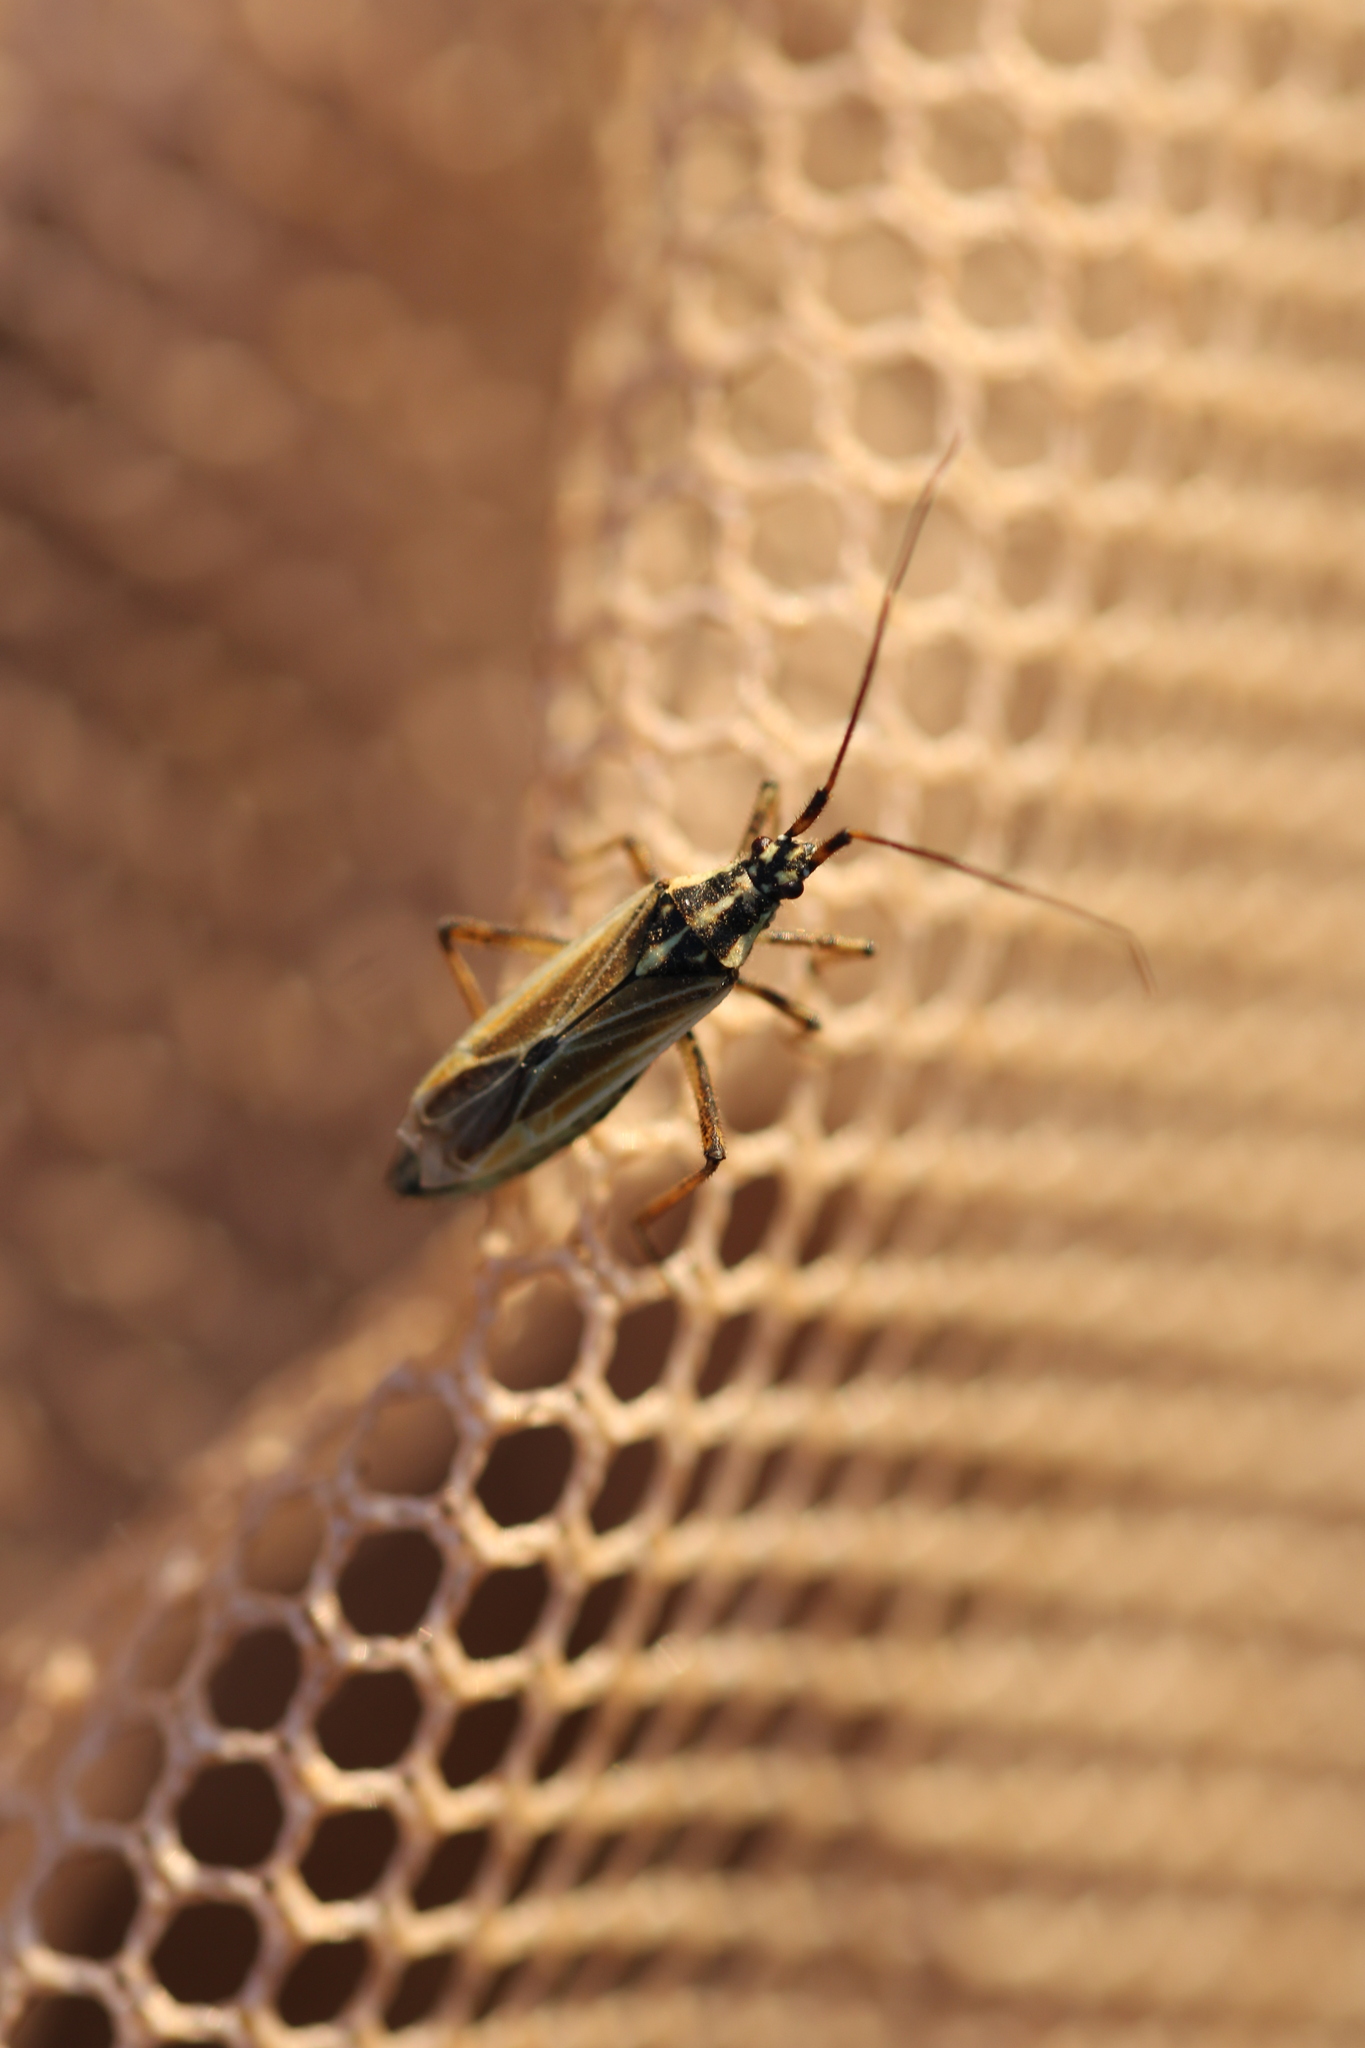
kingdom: Animalia
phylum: Arthropoda
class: Insecta
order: Hemiptera
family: Miridae
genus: Leptopterna
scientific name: Leptopterna dolabrata
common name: Meadow plant bug
